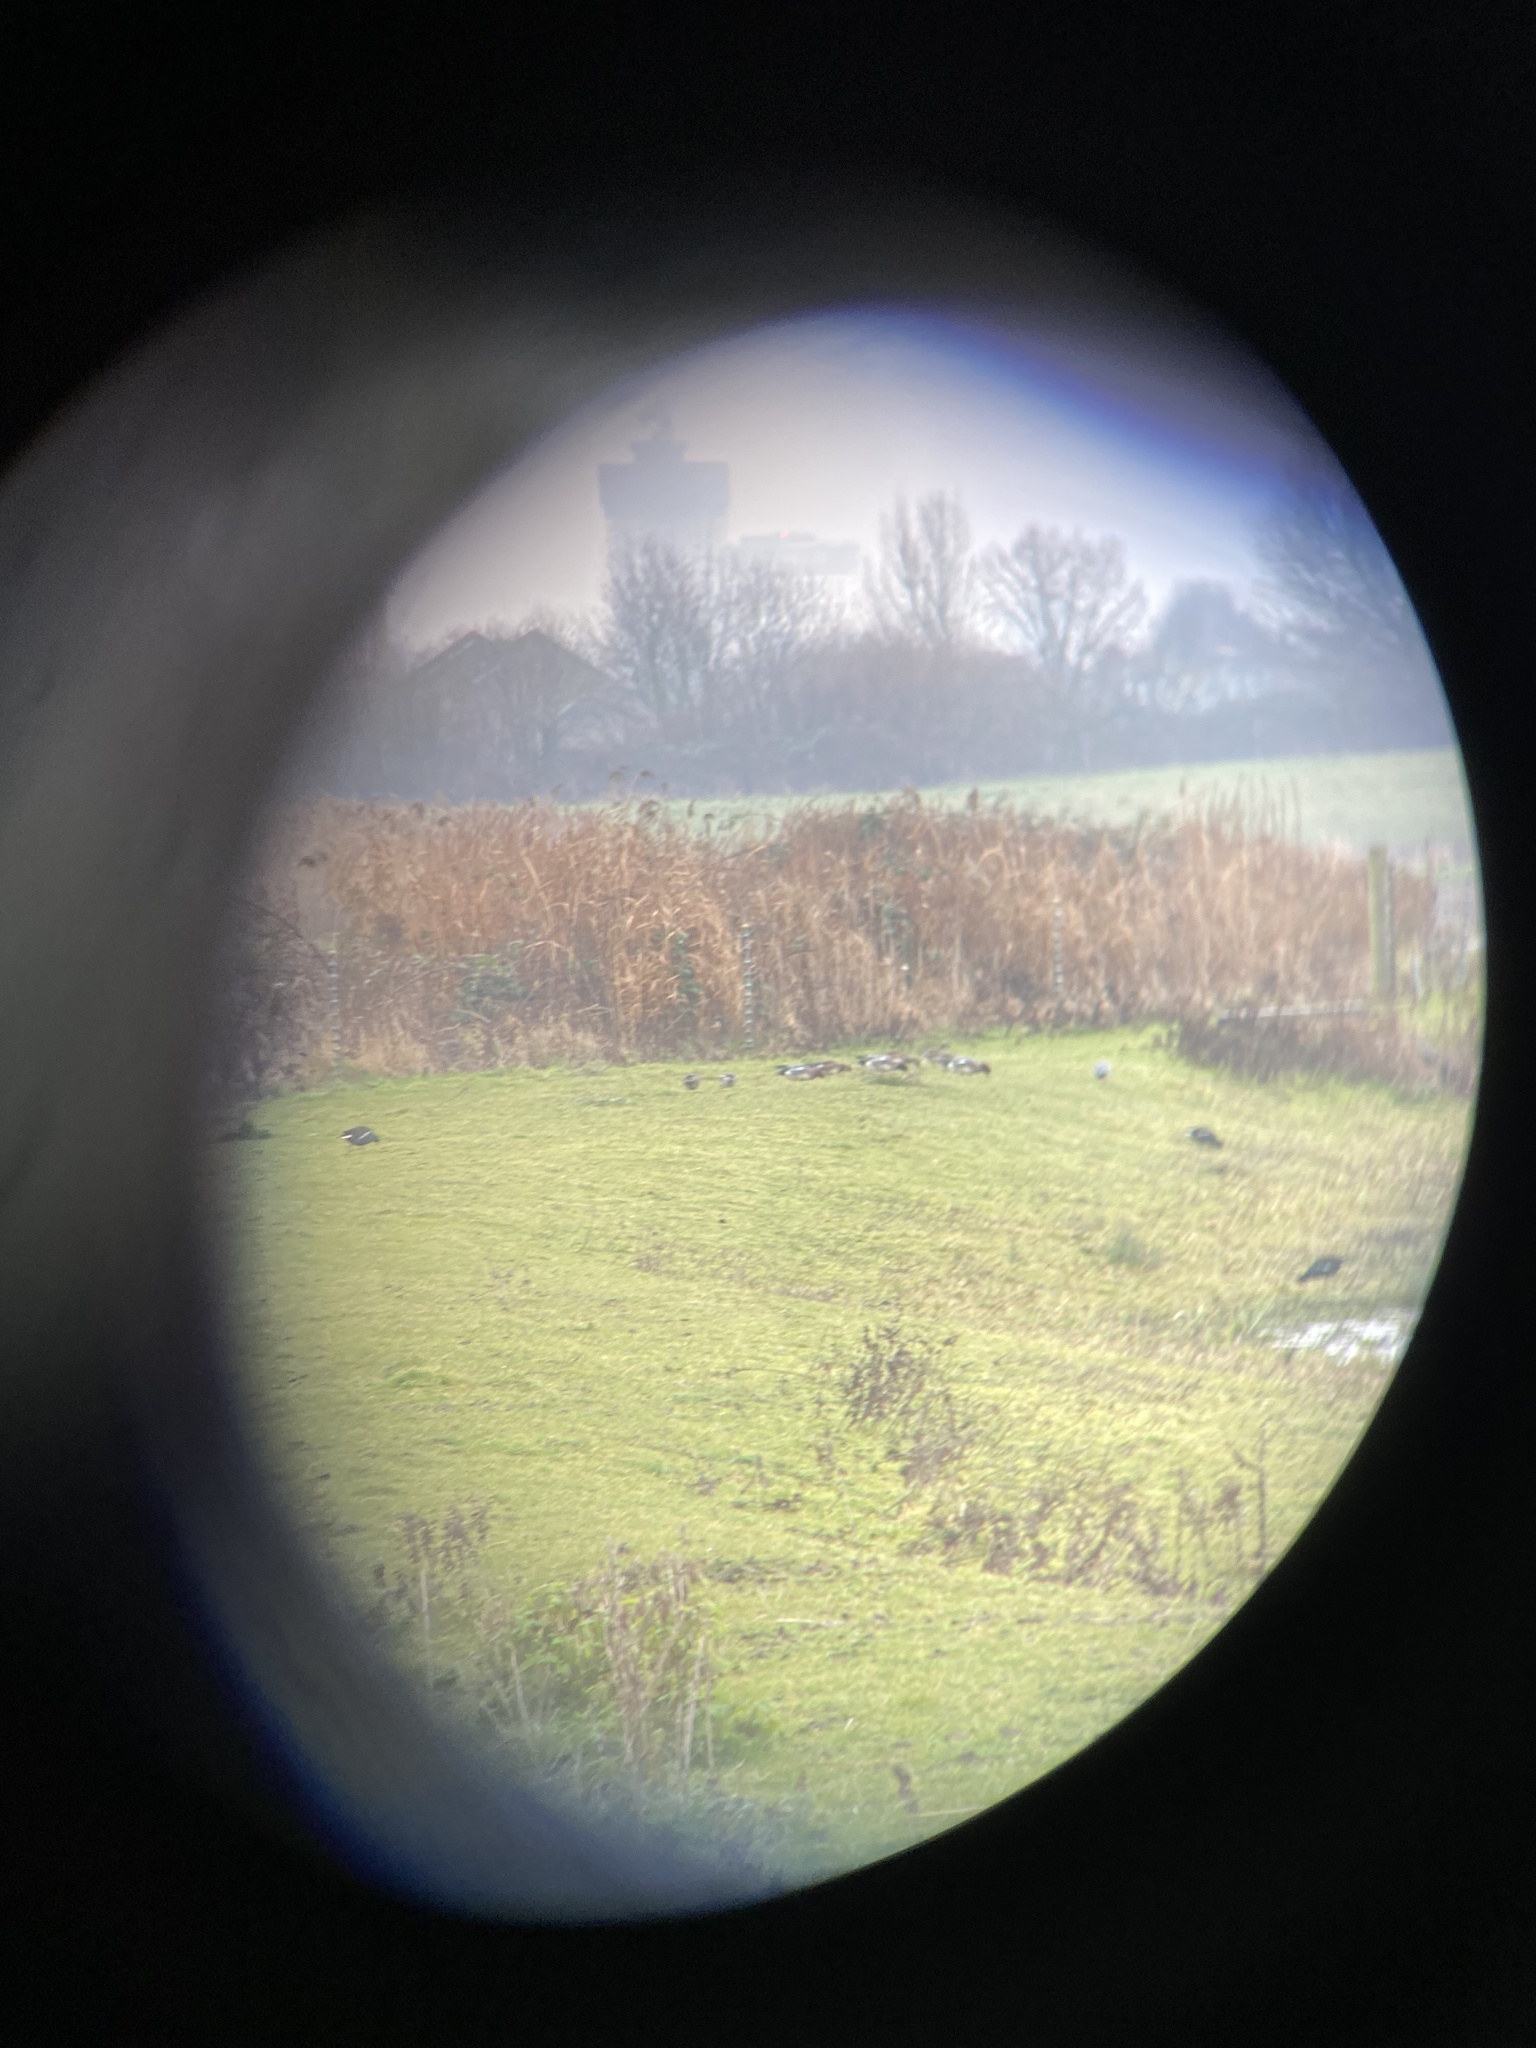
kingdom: Animalia
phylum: Chordata
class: Aves
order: Anseriformes
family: Anatidae
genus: Mareca
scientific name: Mareca penelope
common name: Eurasian wigeon
